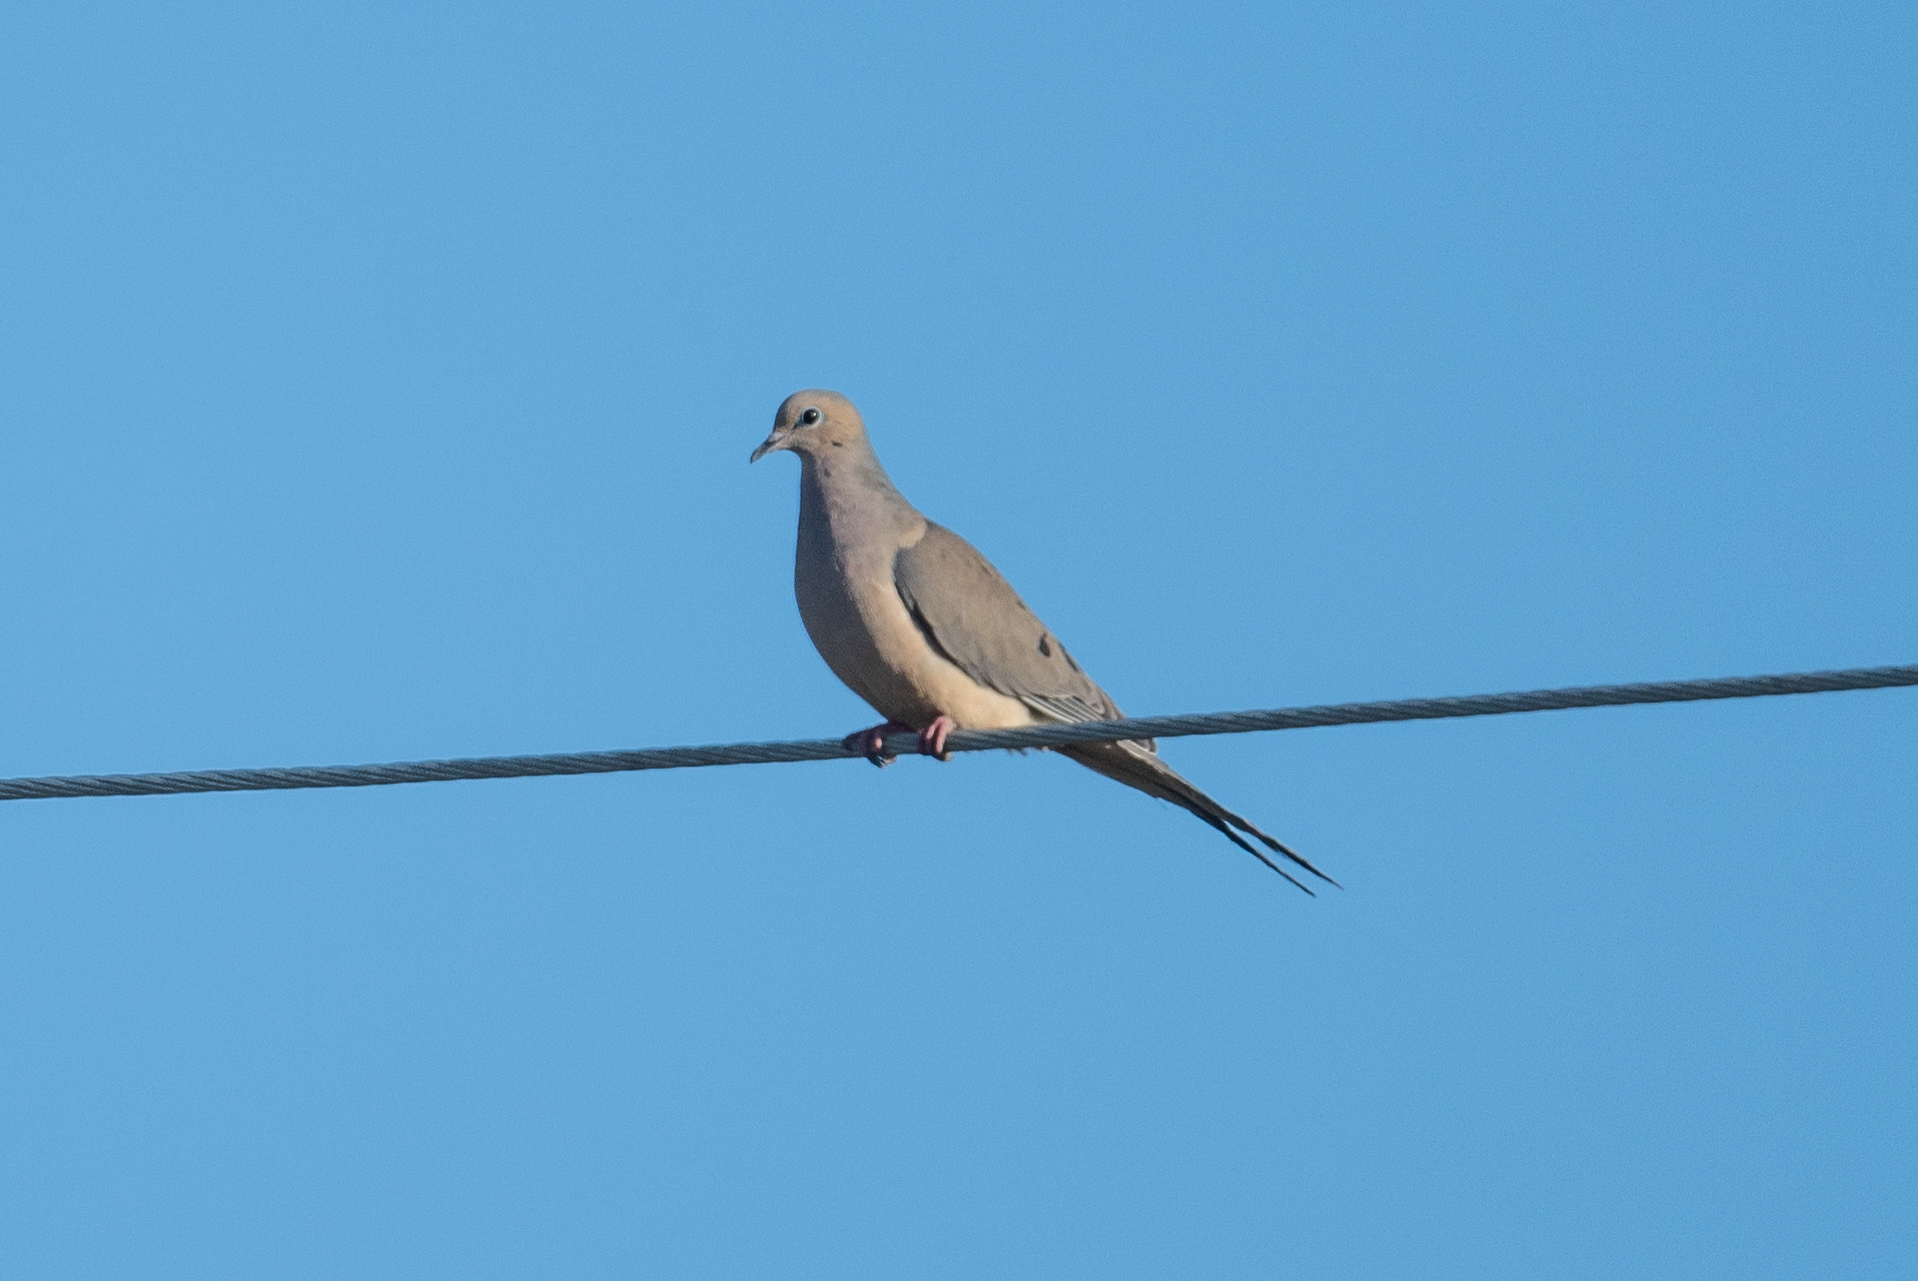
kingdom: Animalia
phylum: Chordata
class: Aves
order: Columbiformes
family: Columbidae
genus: Zenaida
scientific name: Zenaida macroura
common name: Mourning dove
